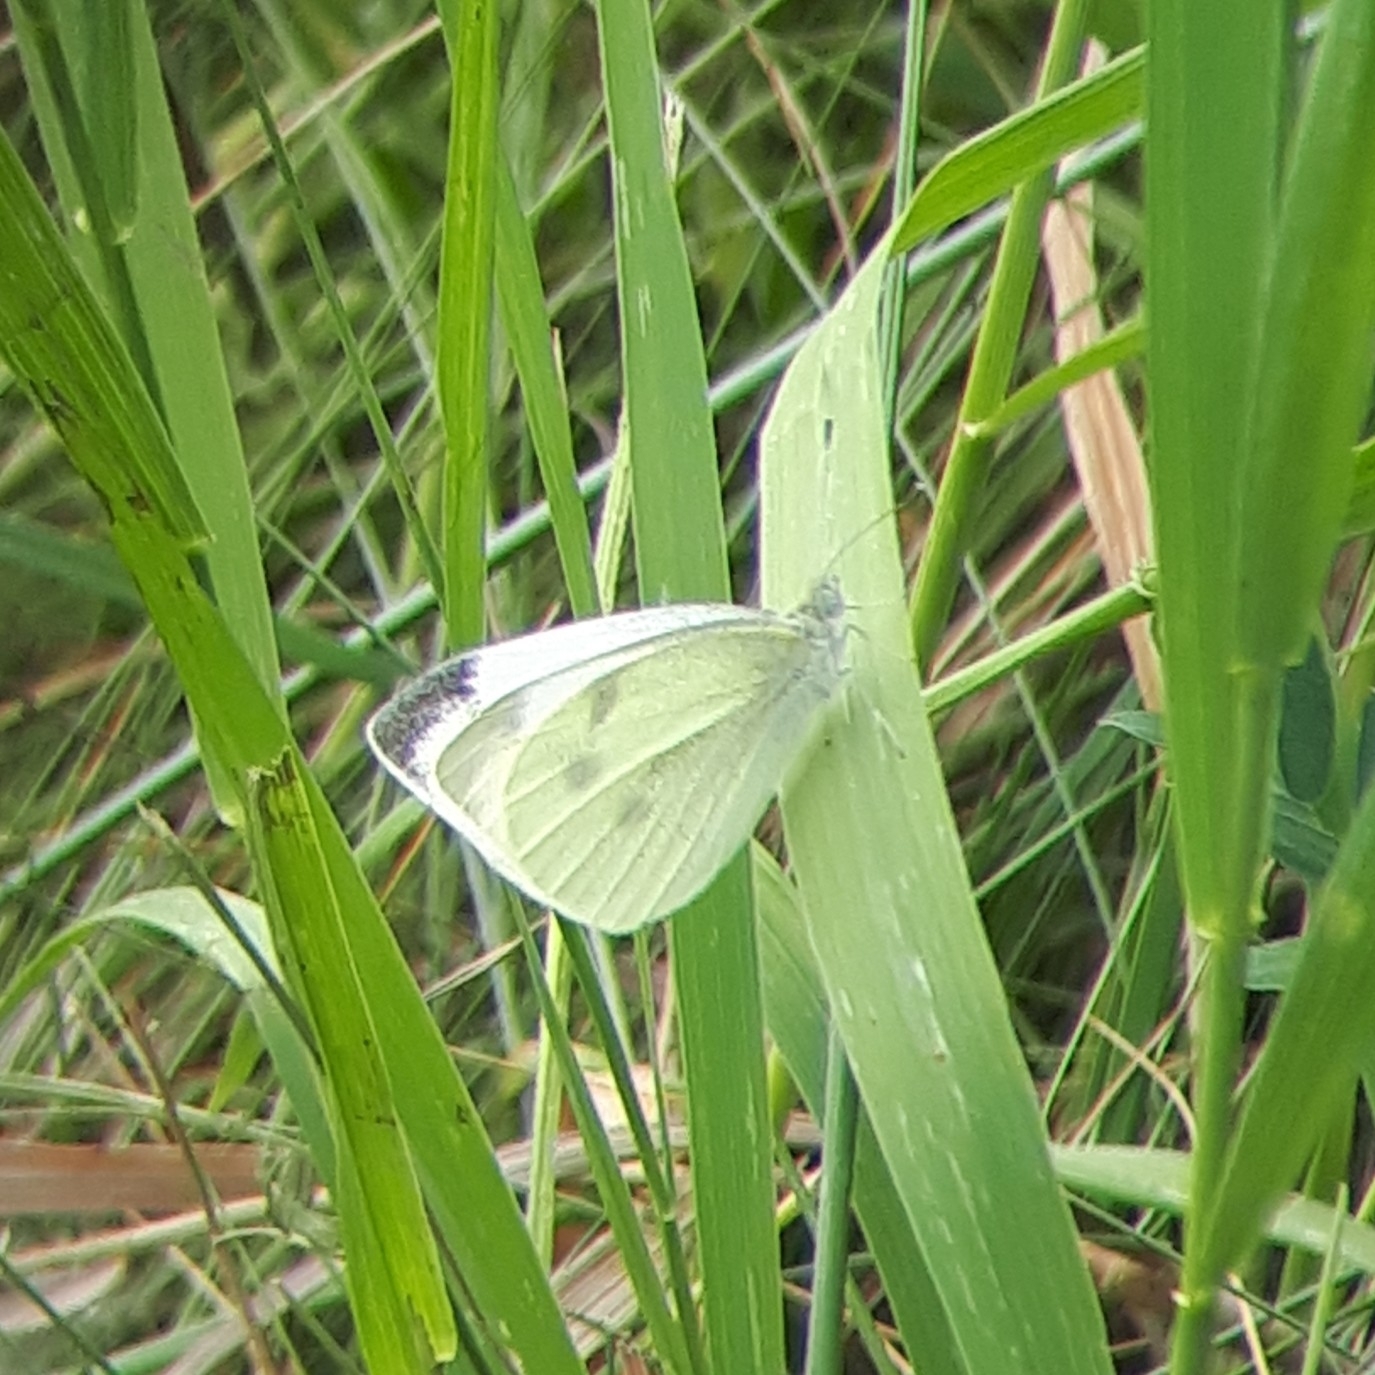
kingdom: Animalia
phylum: Arthropoda
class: Insecta
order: Lepidoptera
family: Pieridae
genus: Pieris
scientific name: Pieris rapae
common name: Small white
